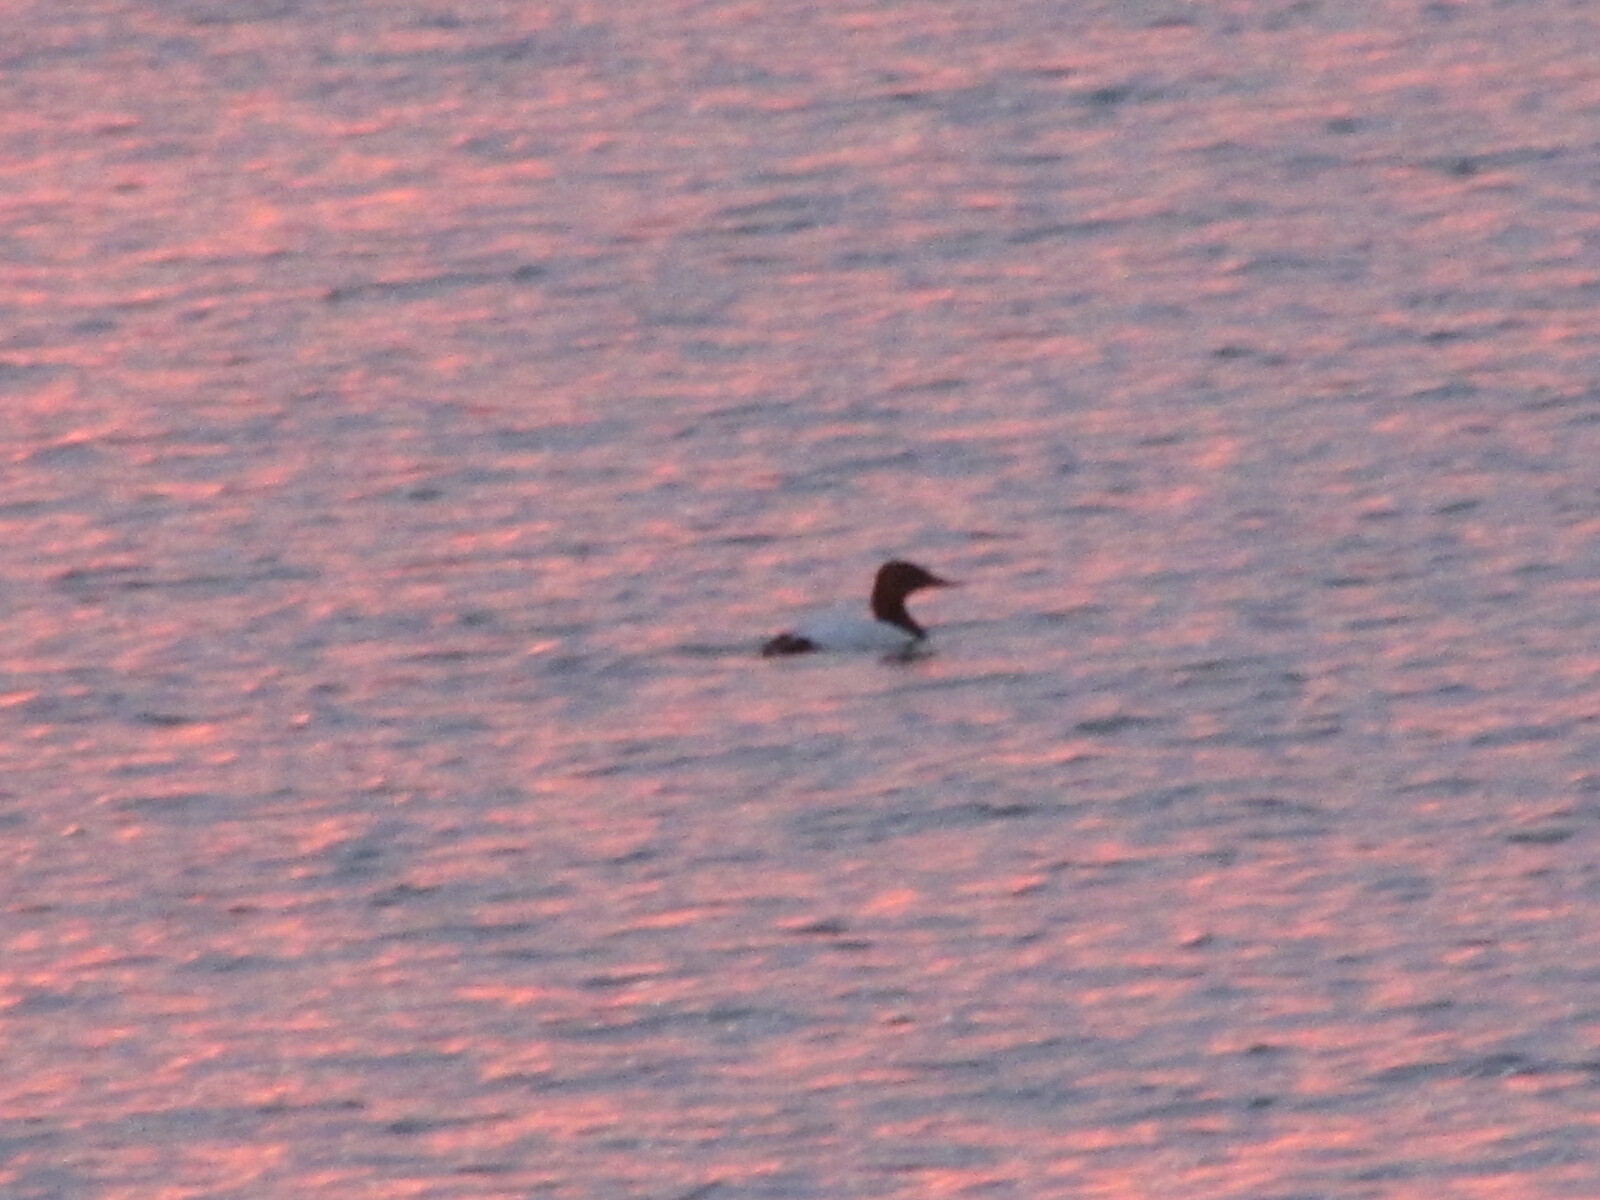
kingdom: Animalia
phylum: Chordata
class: Aves
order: Anseriformes
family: Anatidae
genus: Aythya
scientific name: Aythya valisineria
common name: Canvasback
